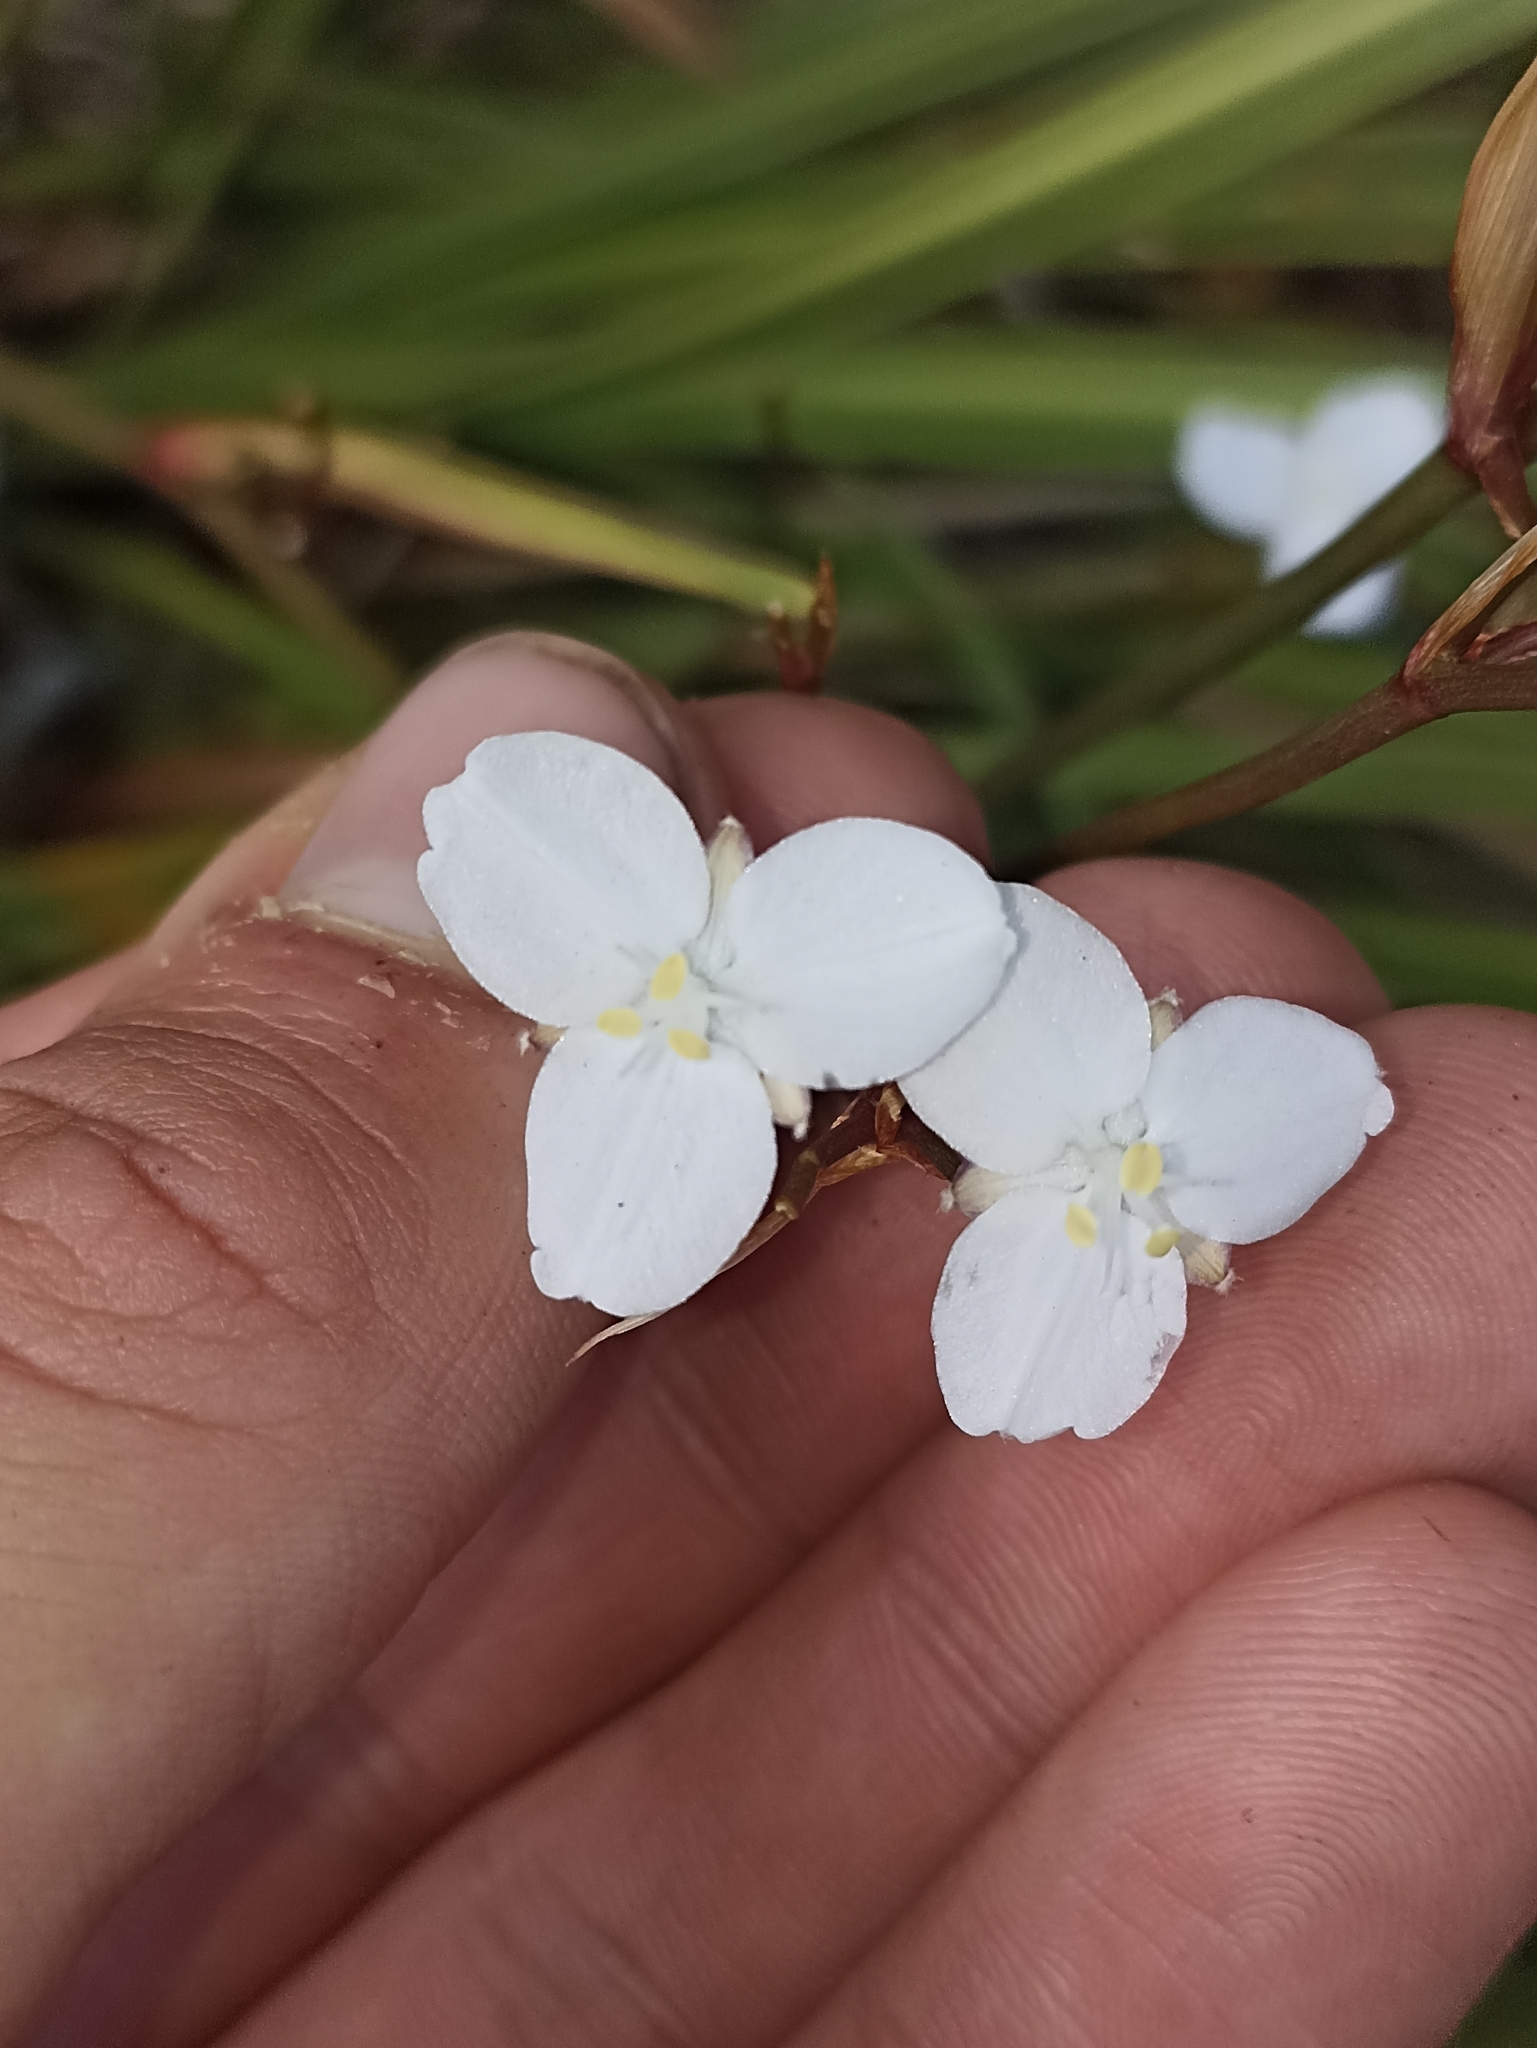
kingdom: Plantae
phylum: Tracheophyta
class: Liliopsida
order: Asparagales
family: Iridaceae
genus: Libertia
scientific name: Libertia grandiflora
